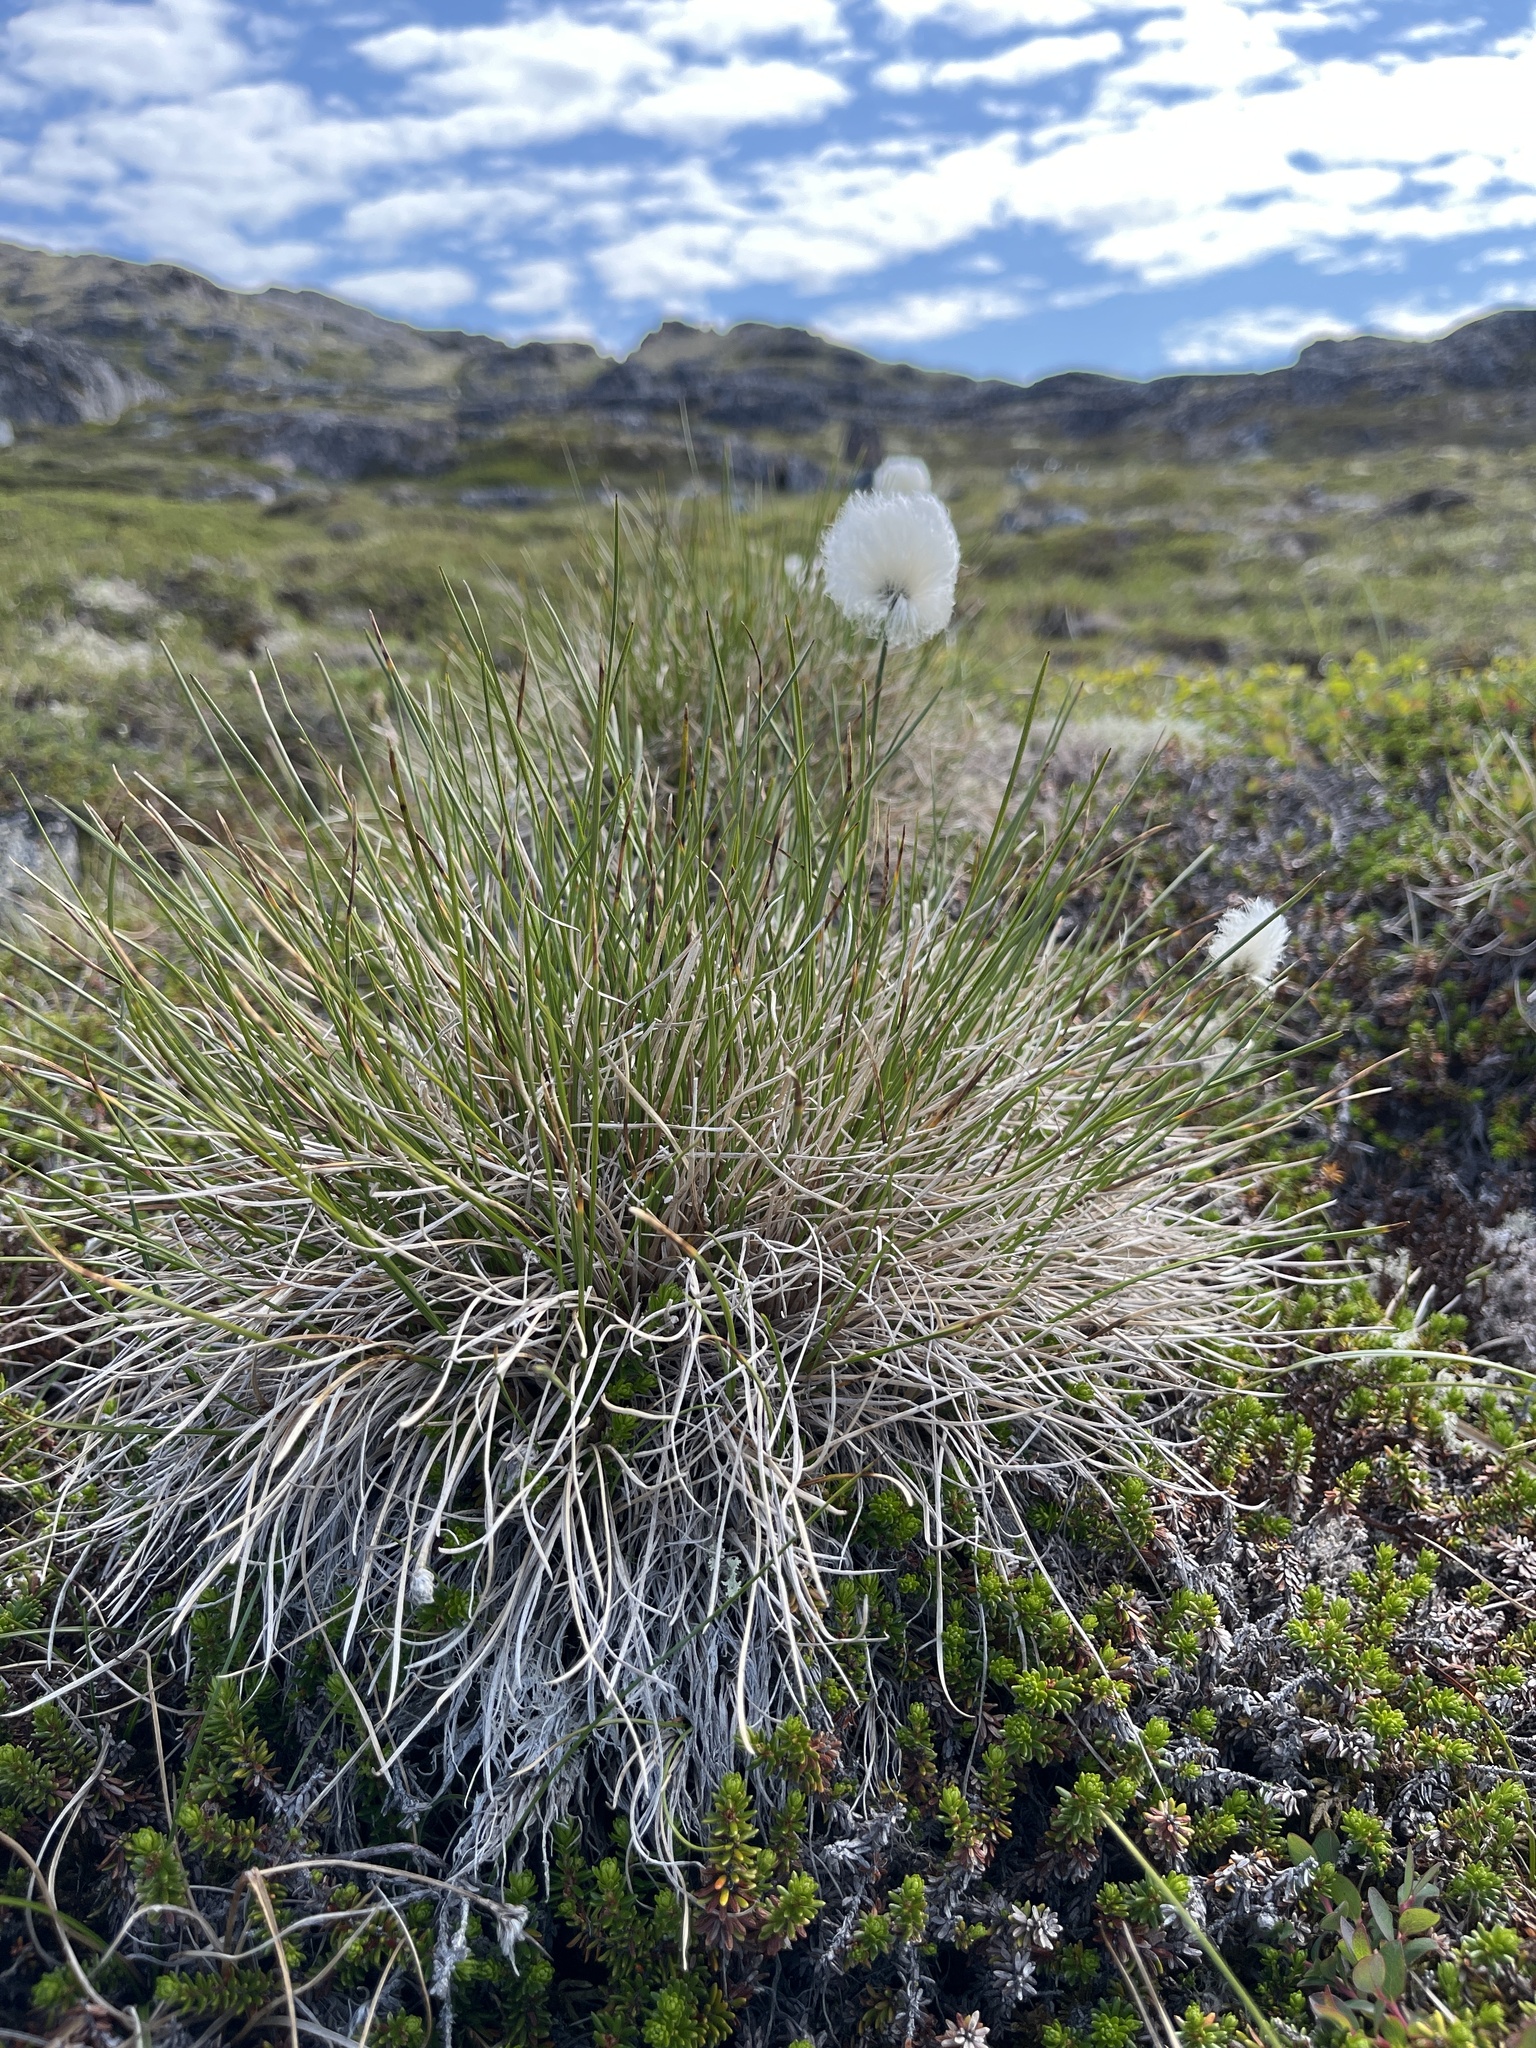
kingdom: Plantae
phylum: Tracheophyta
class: Liliopsida
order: Poales
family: Cyperaceae
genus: Eriophorum
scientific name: Eriophorum vaginatum
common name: Hare's-tail cottongrass
